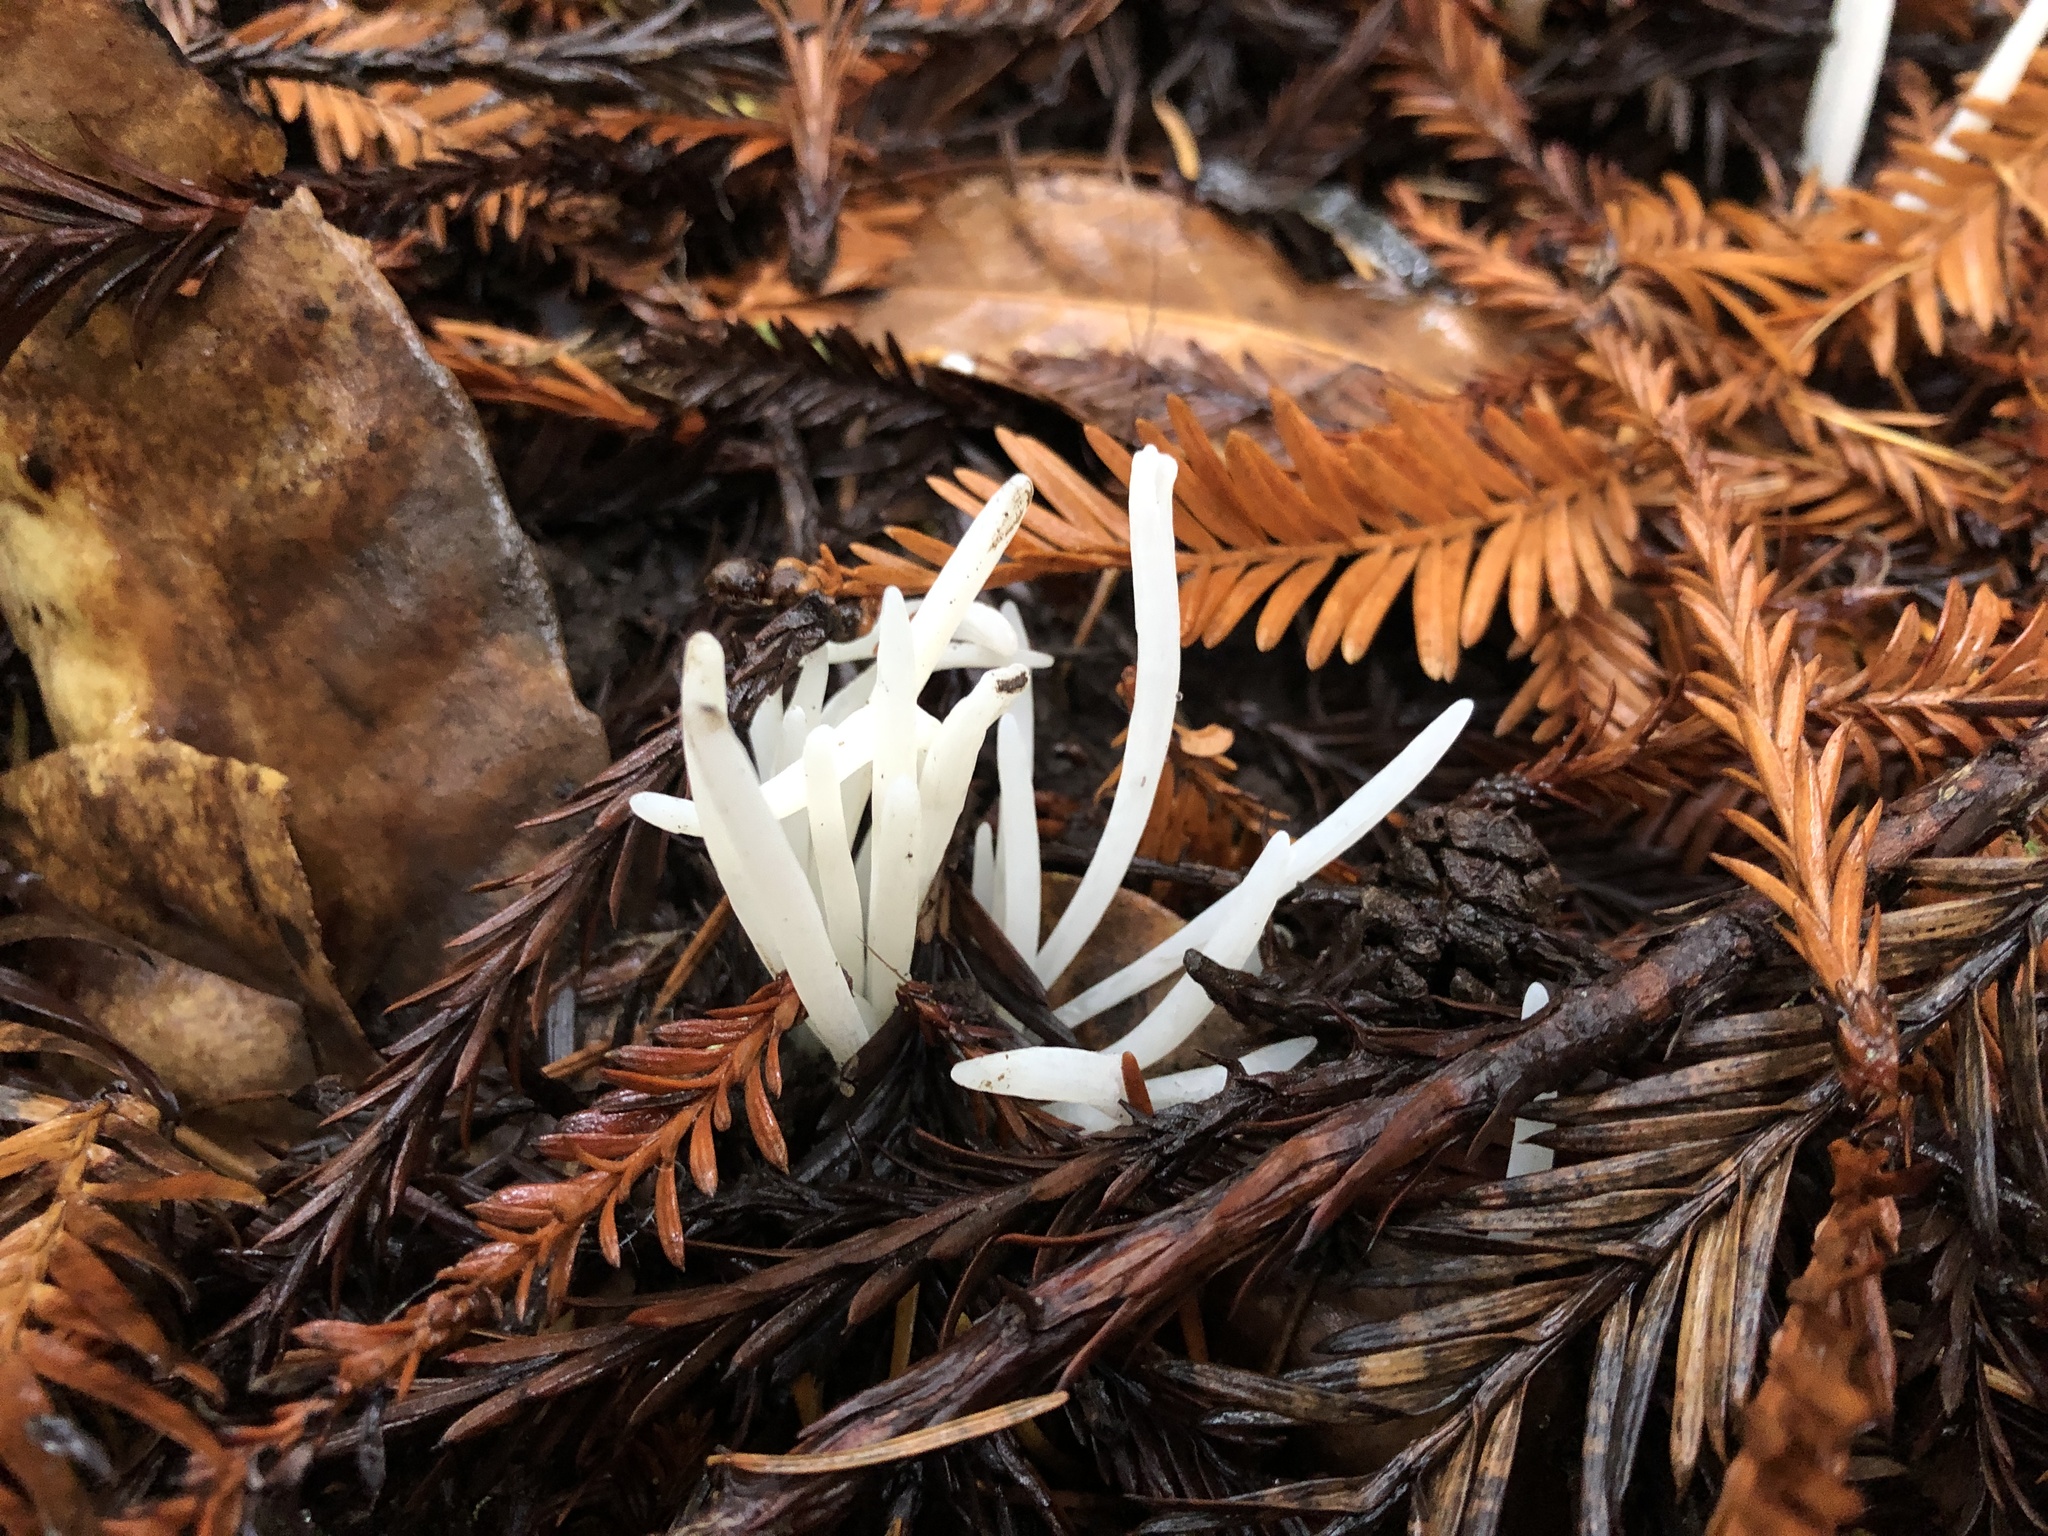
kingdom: Fungi
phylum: Basidiomycota
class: Agaricomycetes
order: Agaricales
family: Clavariaceae
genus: Clavaria
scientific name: Clavaria fragilis
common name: White spindles
